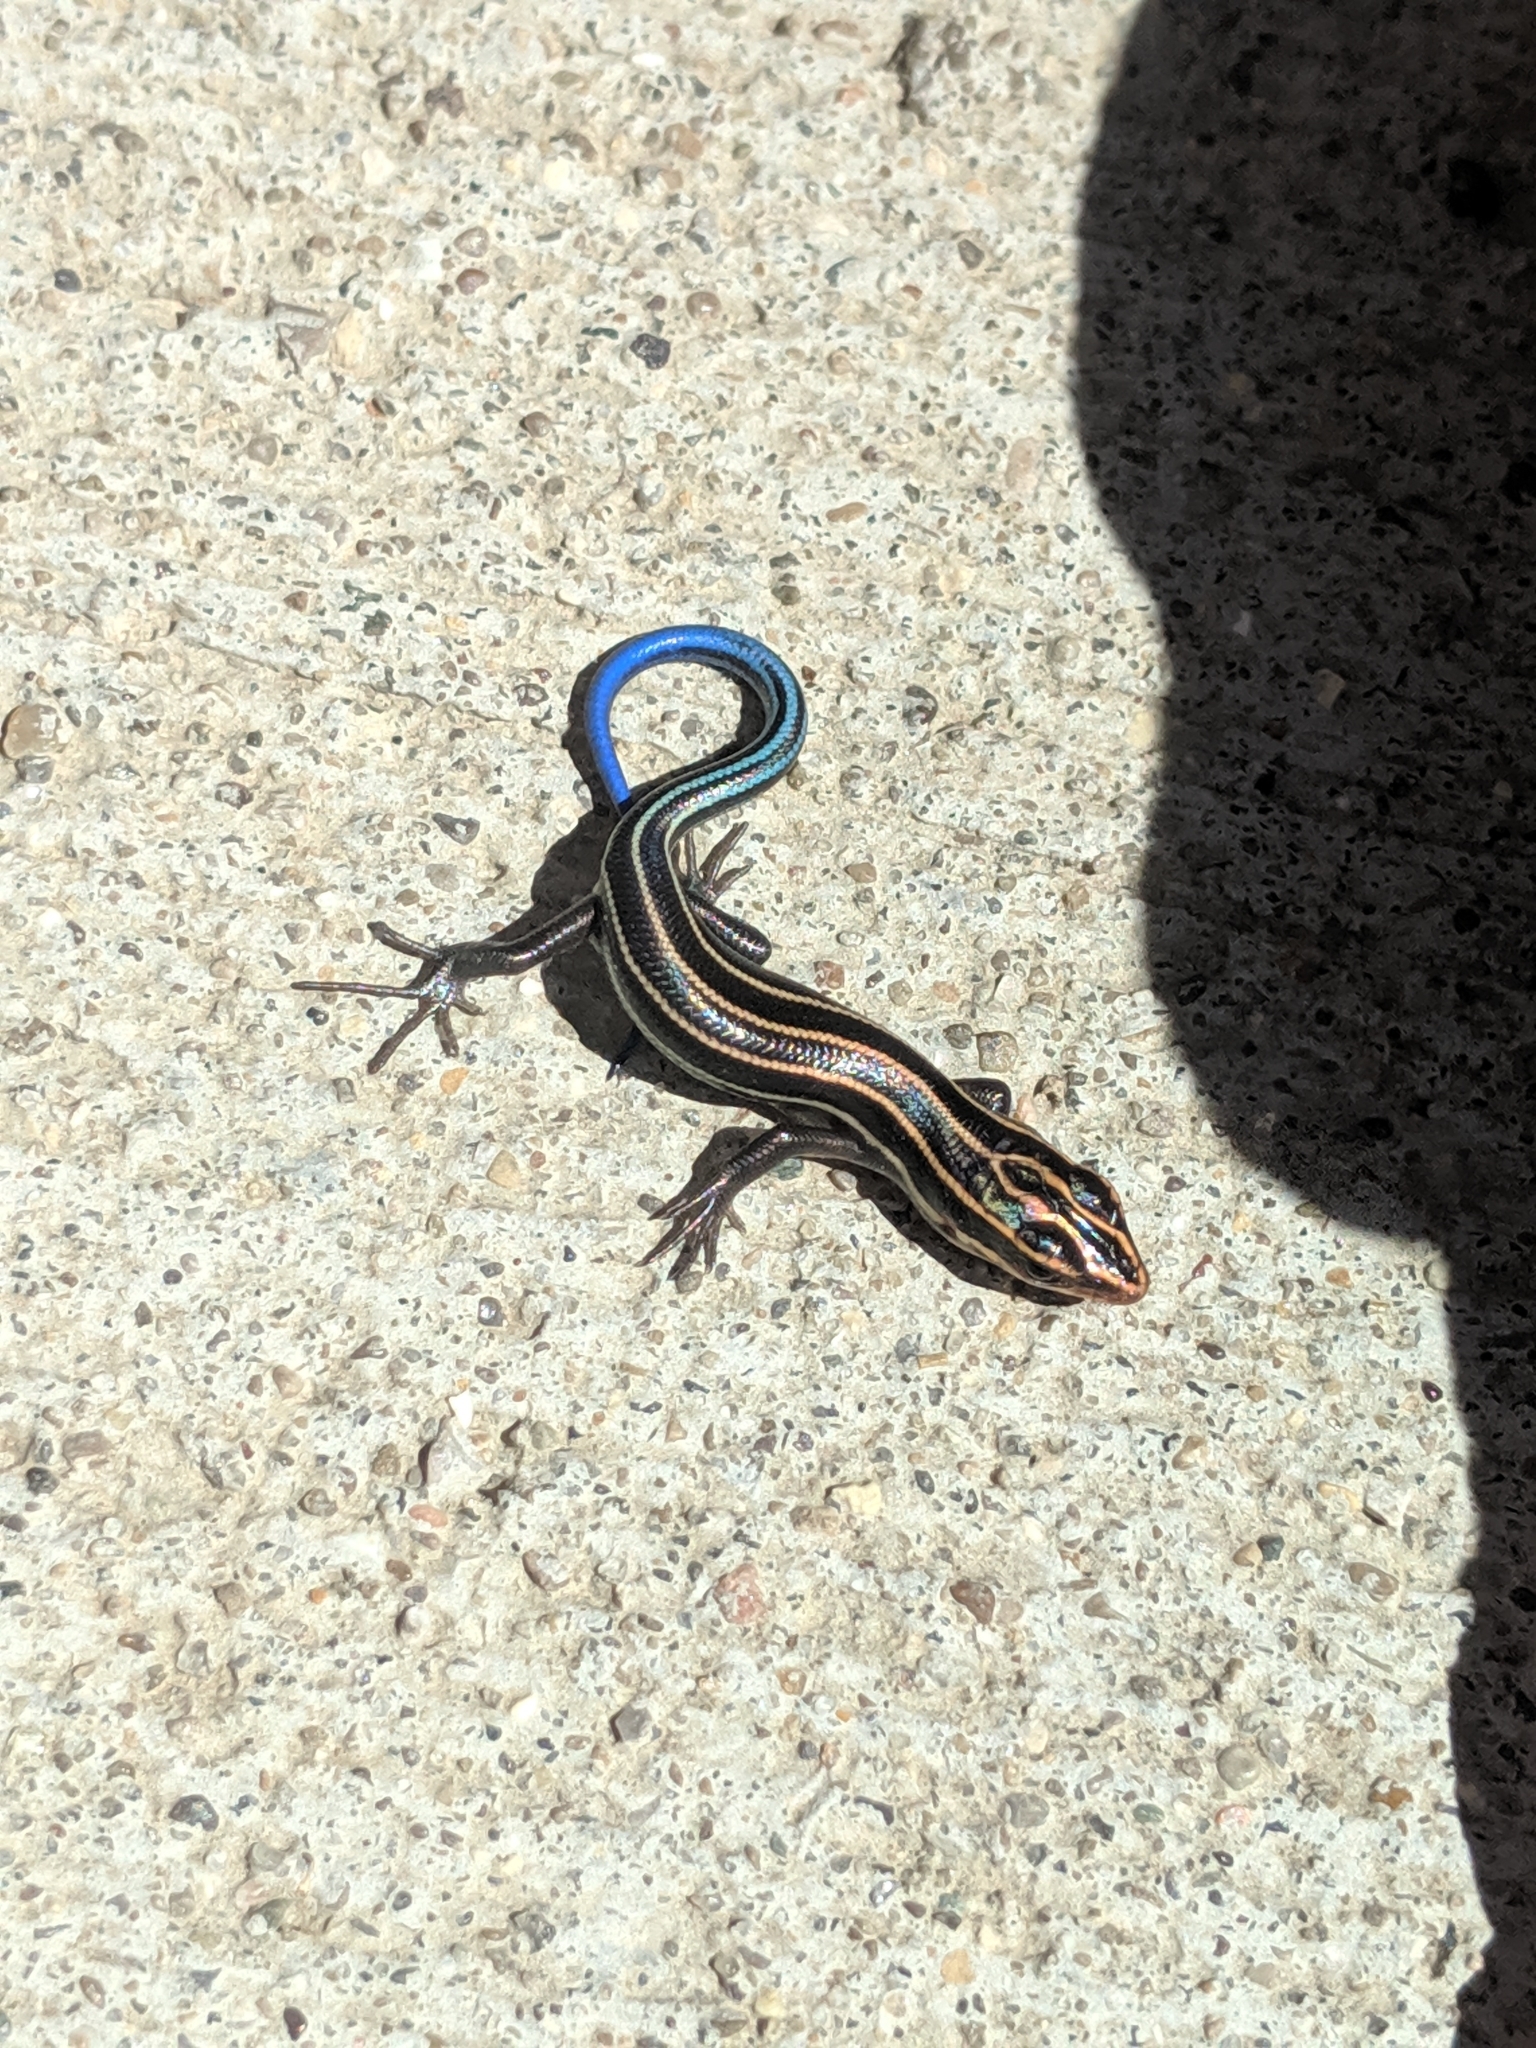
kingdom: Animalia
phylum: Chordata
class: Squamata
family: Scincidae
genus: Plestiodon
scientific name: Plestiodon fasciatus
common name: Five-lined skink
